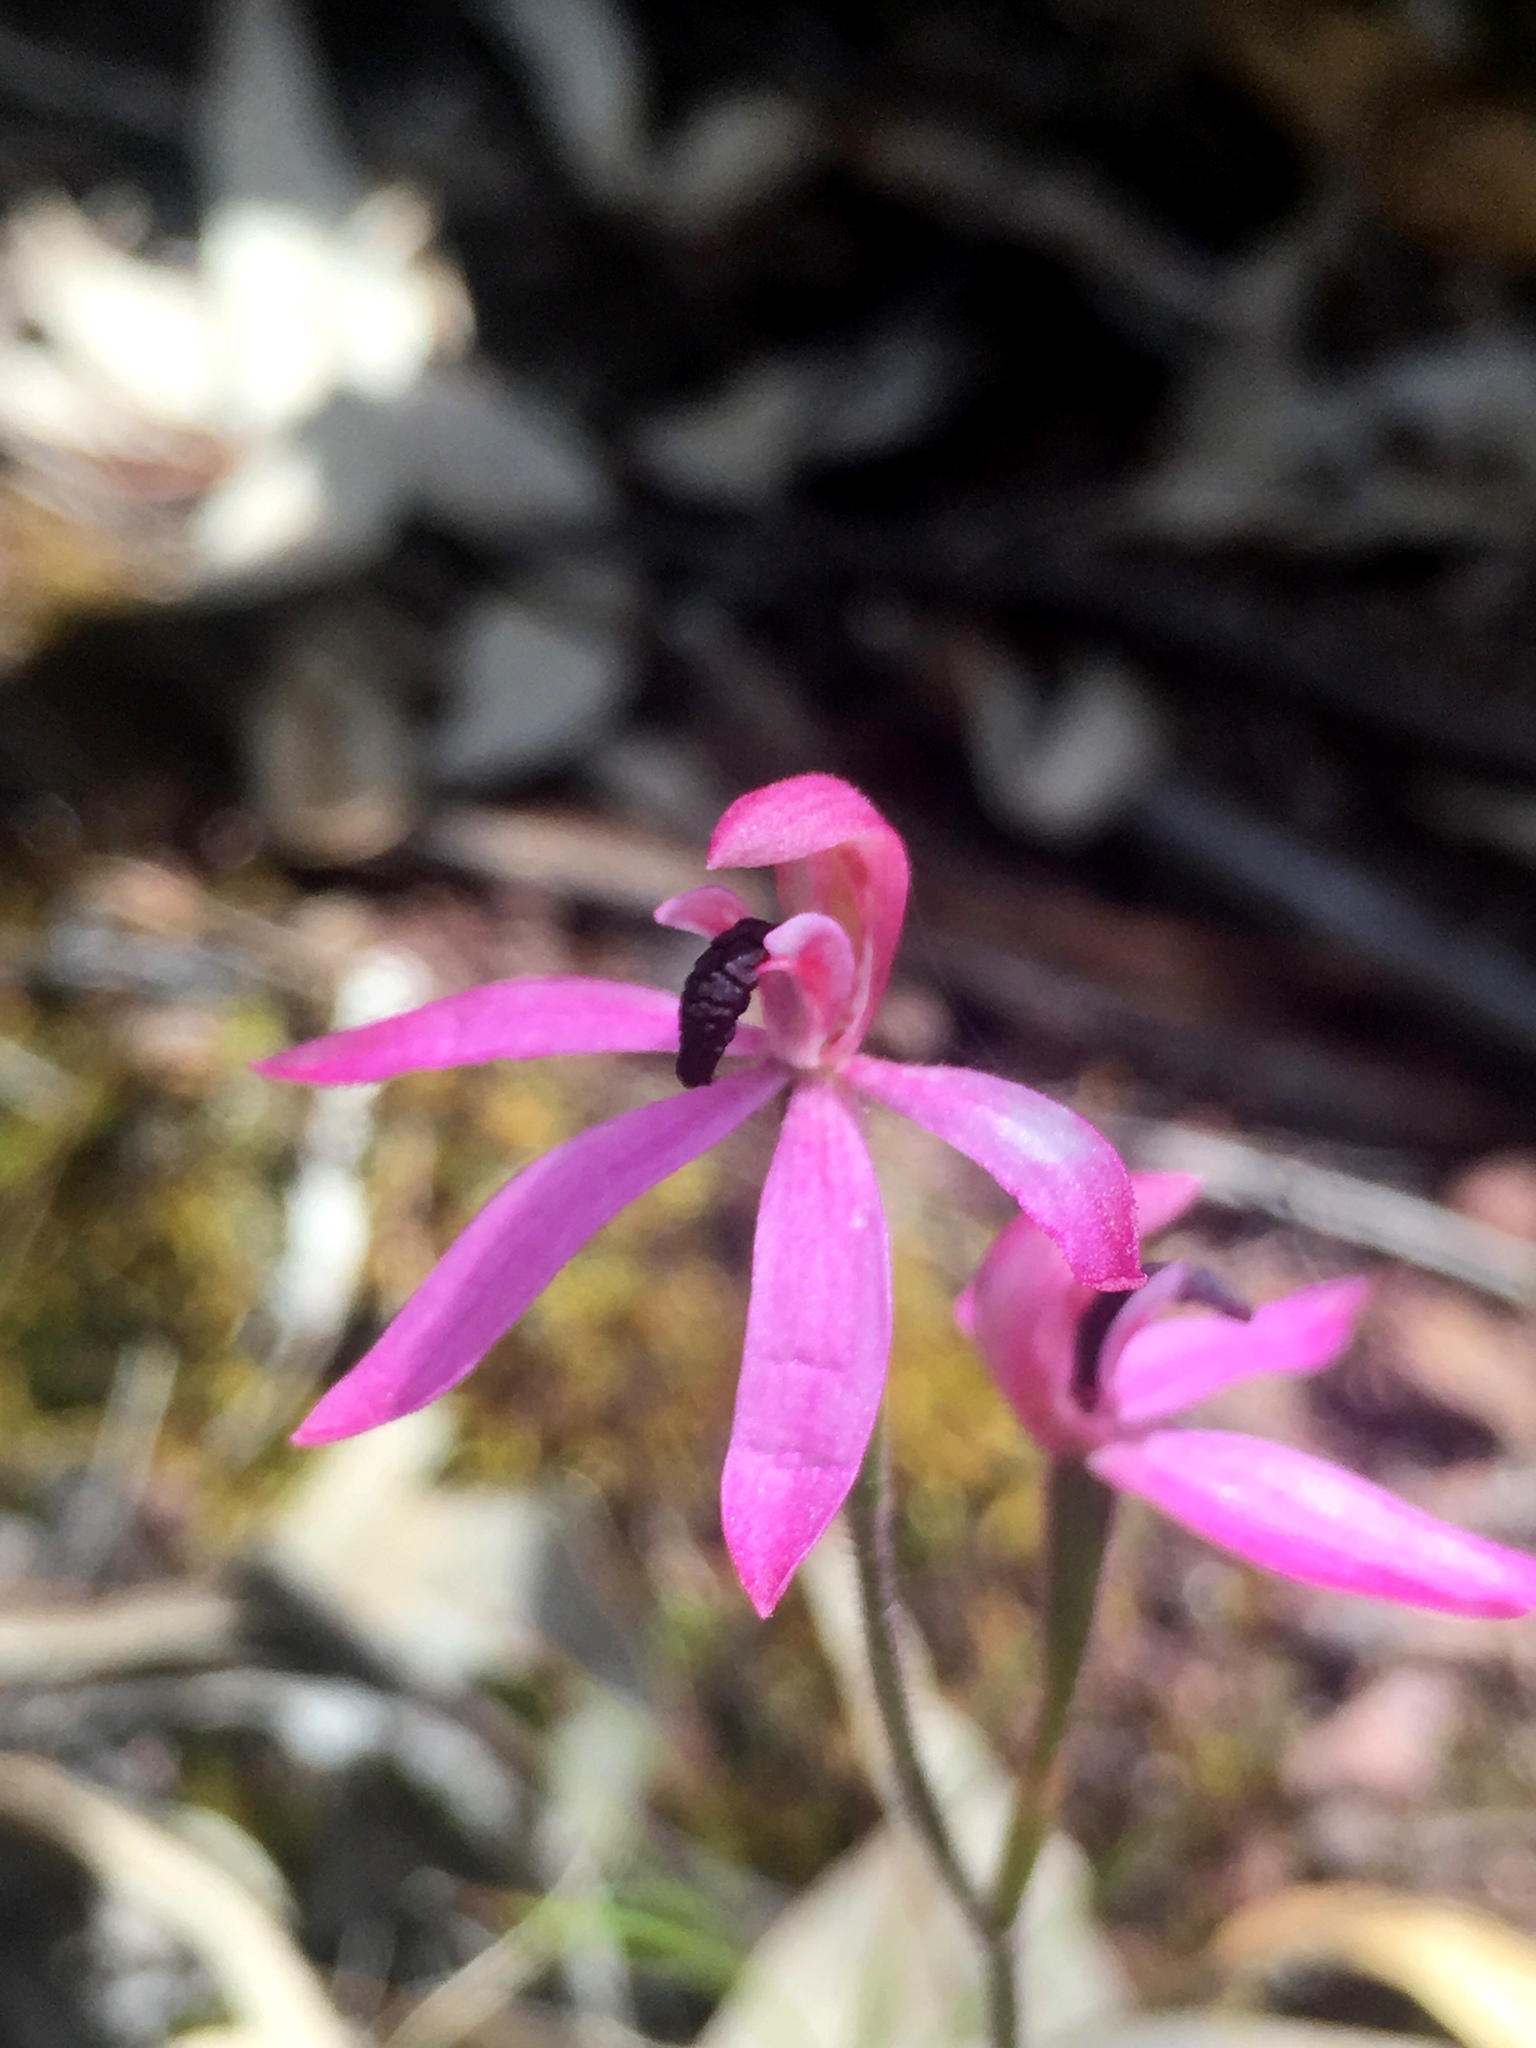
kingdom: Plantae
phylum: Tracheophyta
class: Liliopsida
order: Asparagales
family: Orchidaceae
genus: Caladenia
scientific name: Caladenia congesta
